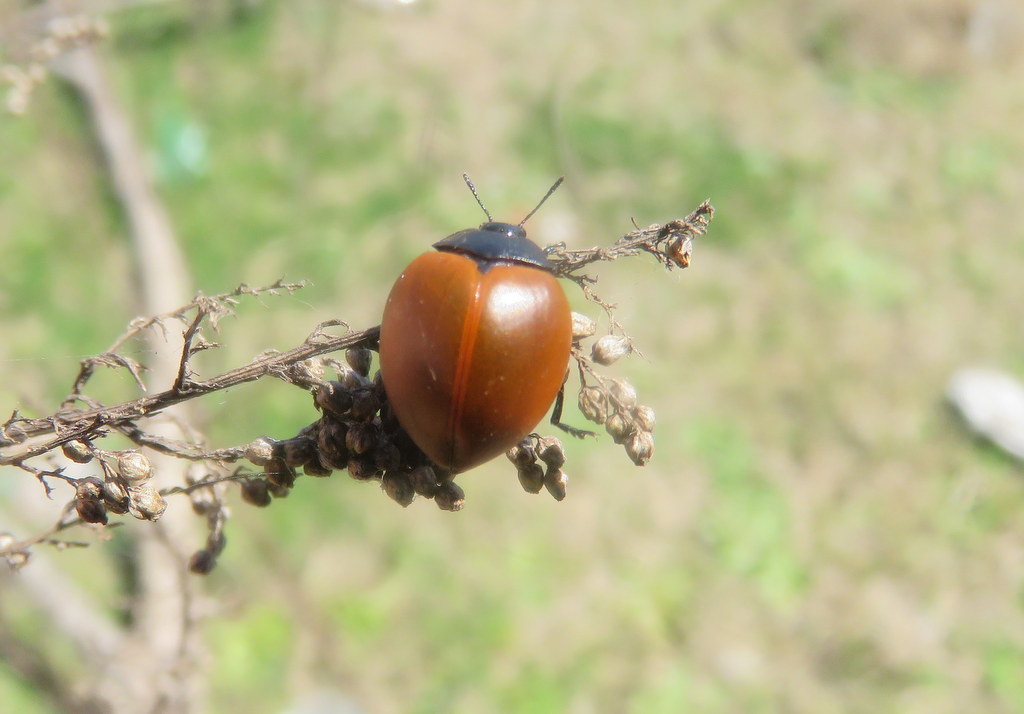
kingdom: Animalia
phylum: Arthropoda
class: Insecta
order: Coleoptera
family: Erotylidae
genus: Aegithus
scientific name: Aegithus clavicornis
